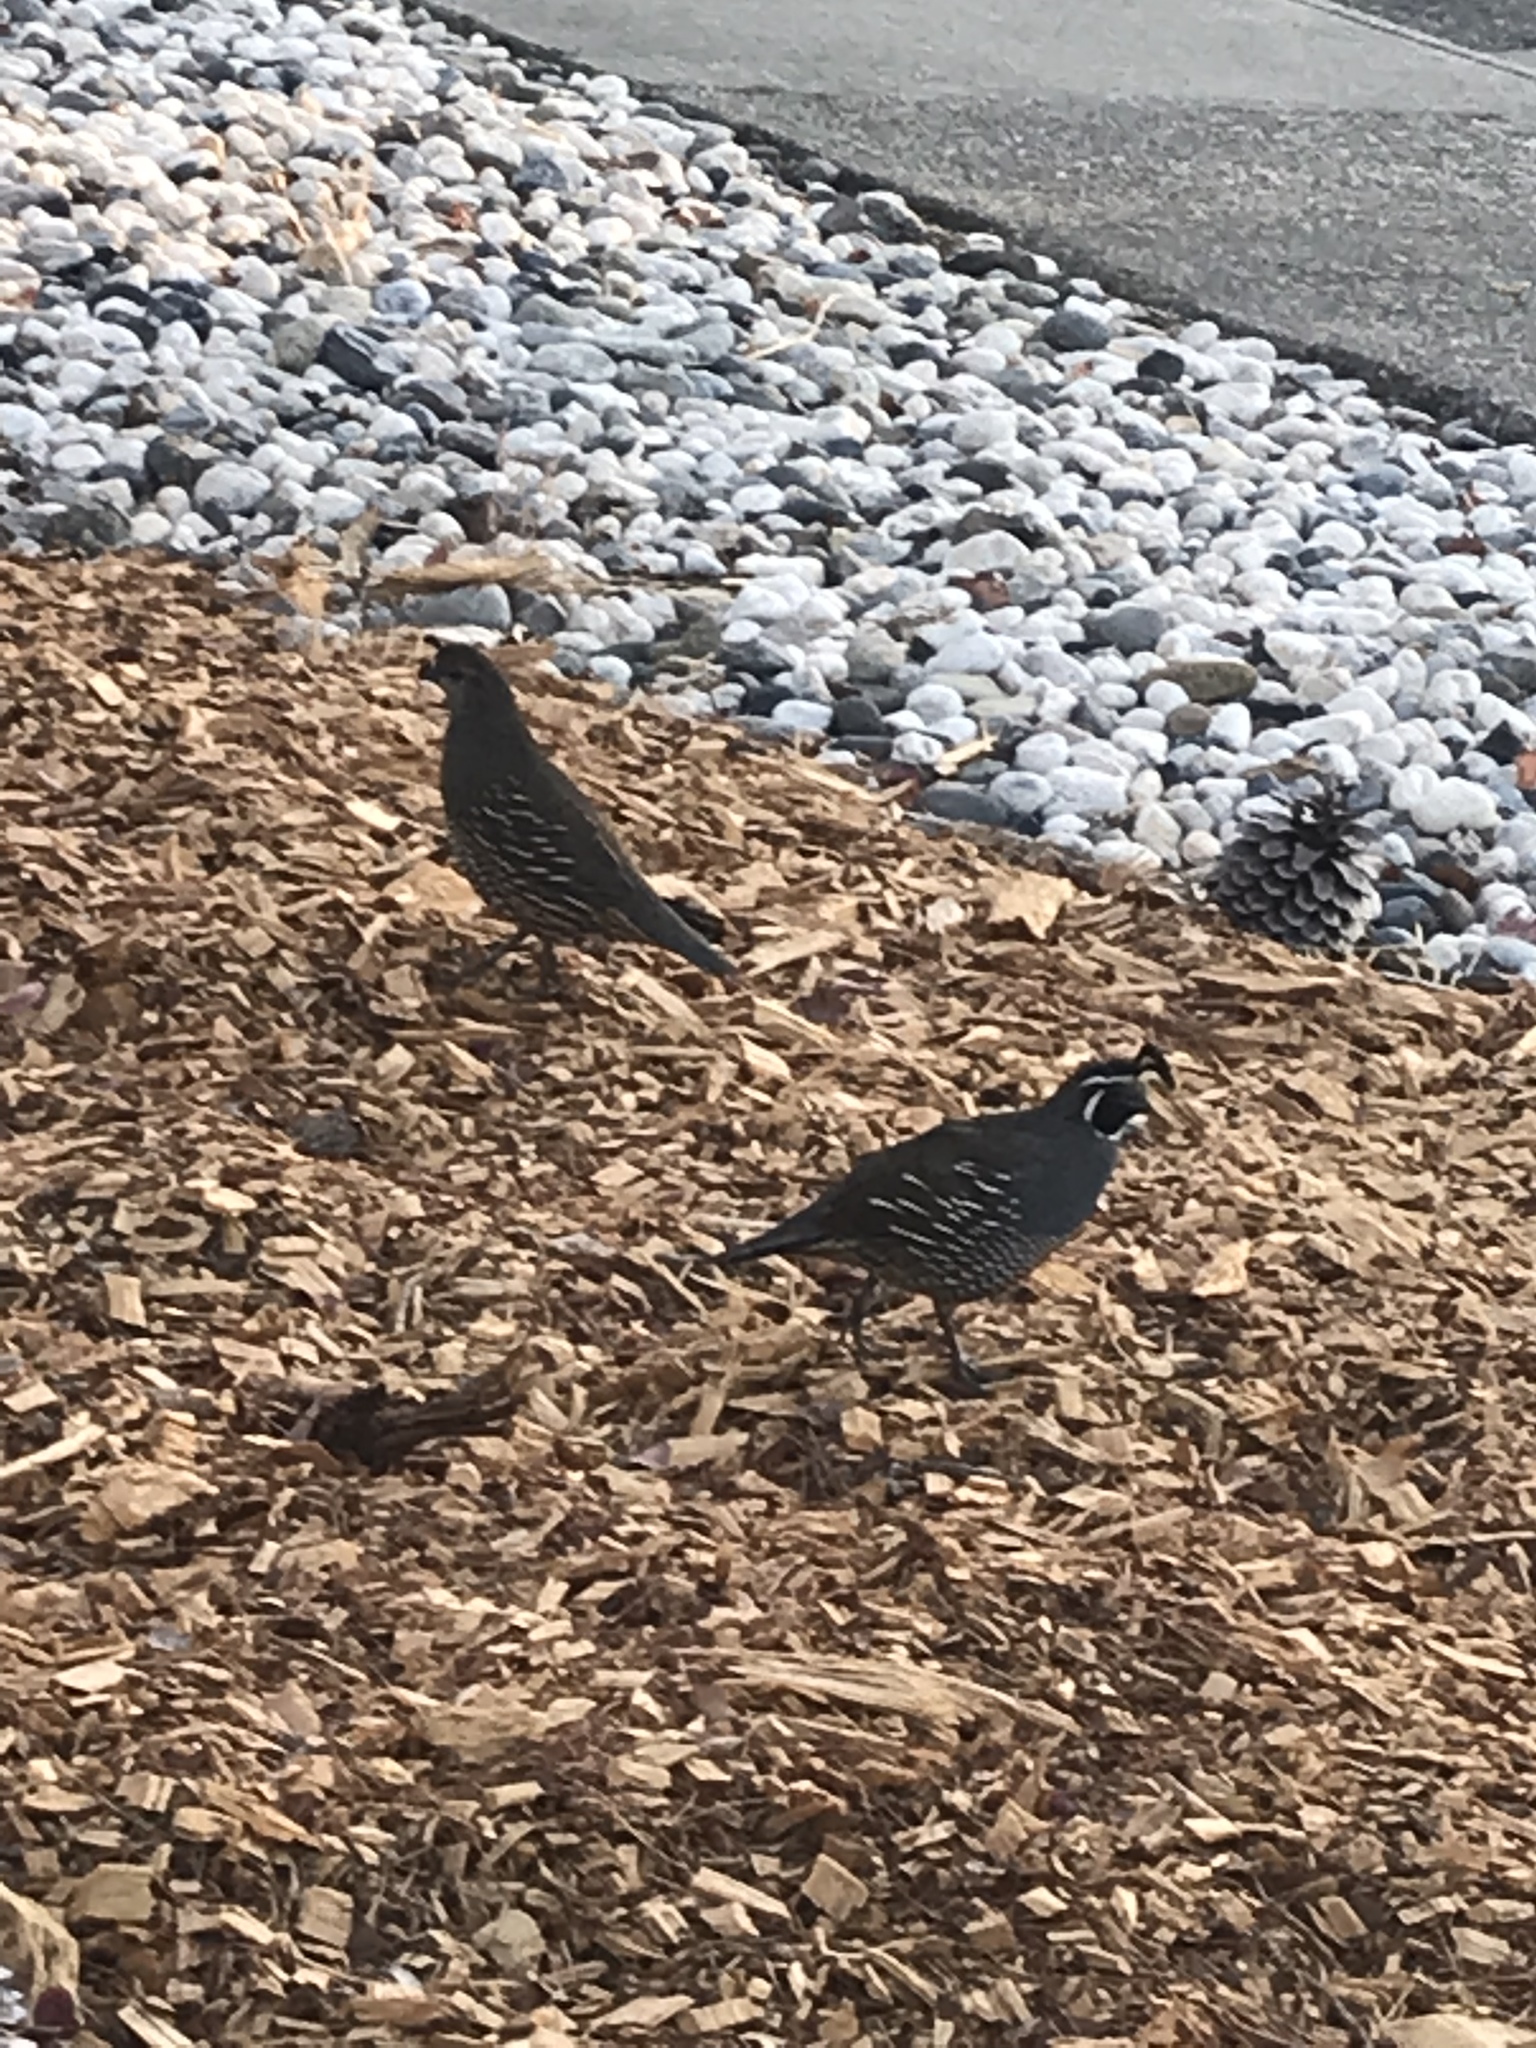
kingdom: Animalia
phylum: Chordata
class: Aves
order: Galliformes
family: Odontophoridae
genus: Callipepla
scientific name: Callipepla californica
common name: California quail
